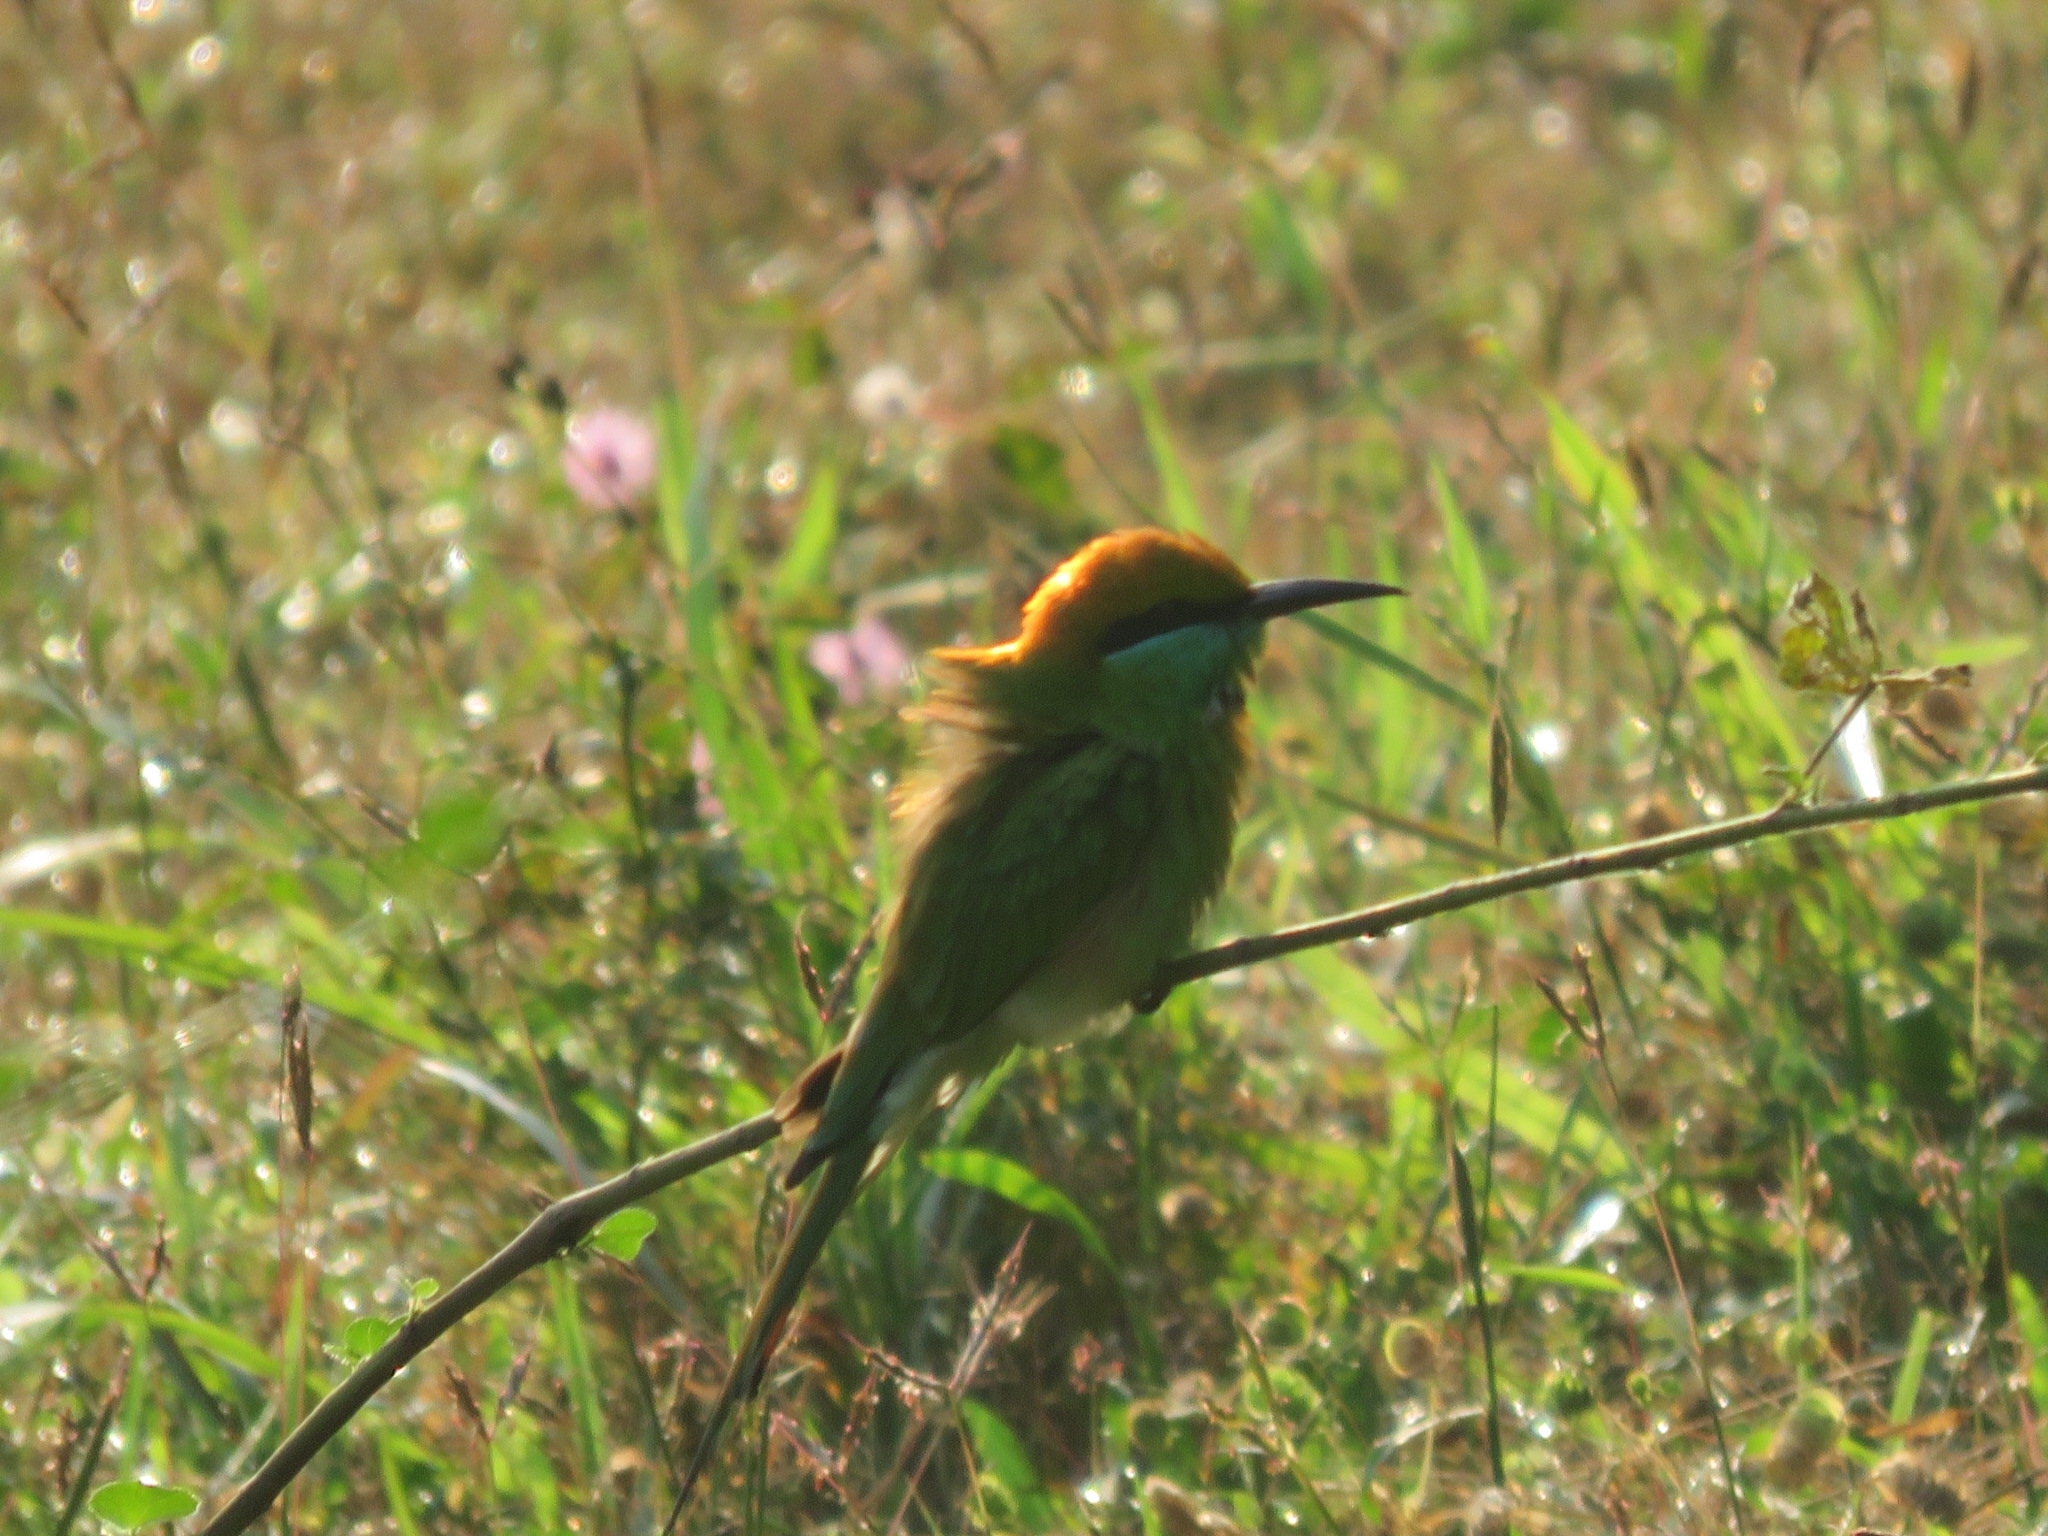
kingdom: Animalia
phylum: Chordata
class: Aves
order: Coraciiformes
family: Meropidae
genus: Merops
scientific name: Merops orientalis
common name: Green bee-eater
